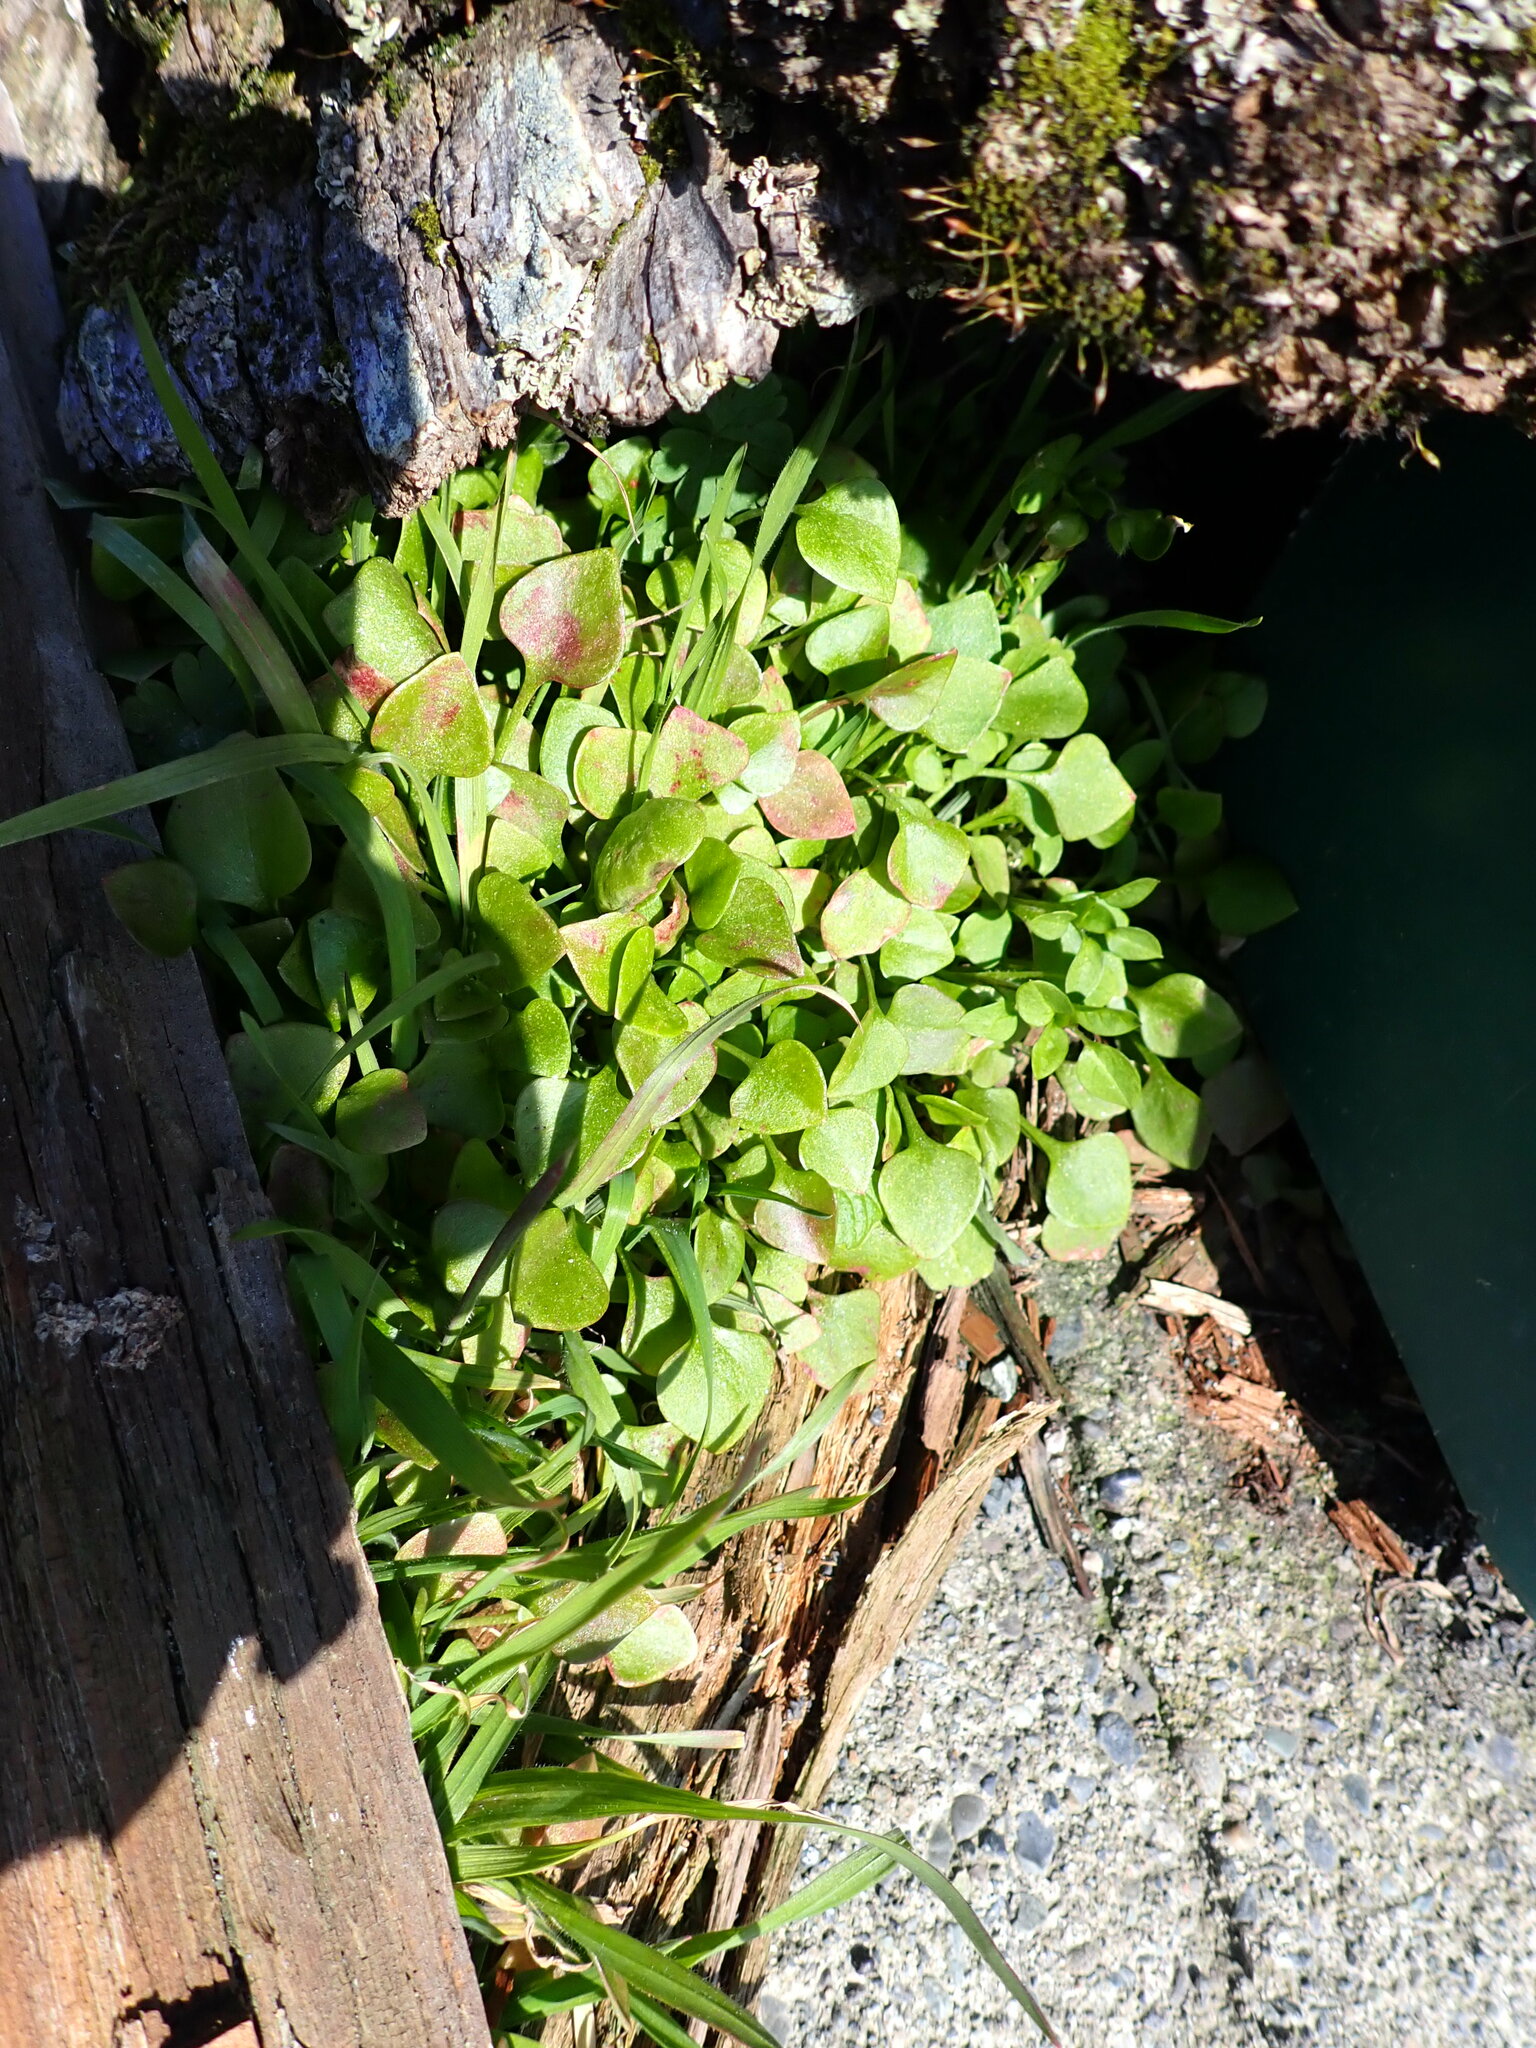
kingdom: Plantae
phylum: Tracheophyta
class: Magnoliopsida
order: Caryophyllales
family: Montiaceae
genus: Claytonia
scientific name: Claytonia perfoliata
